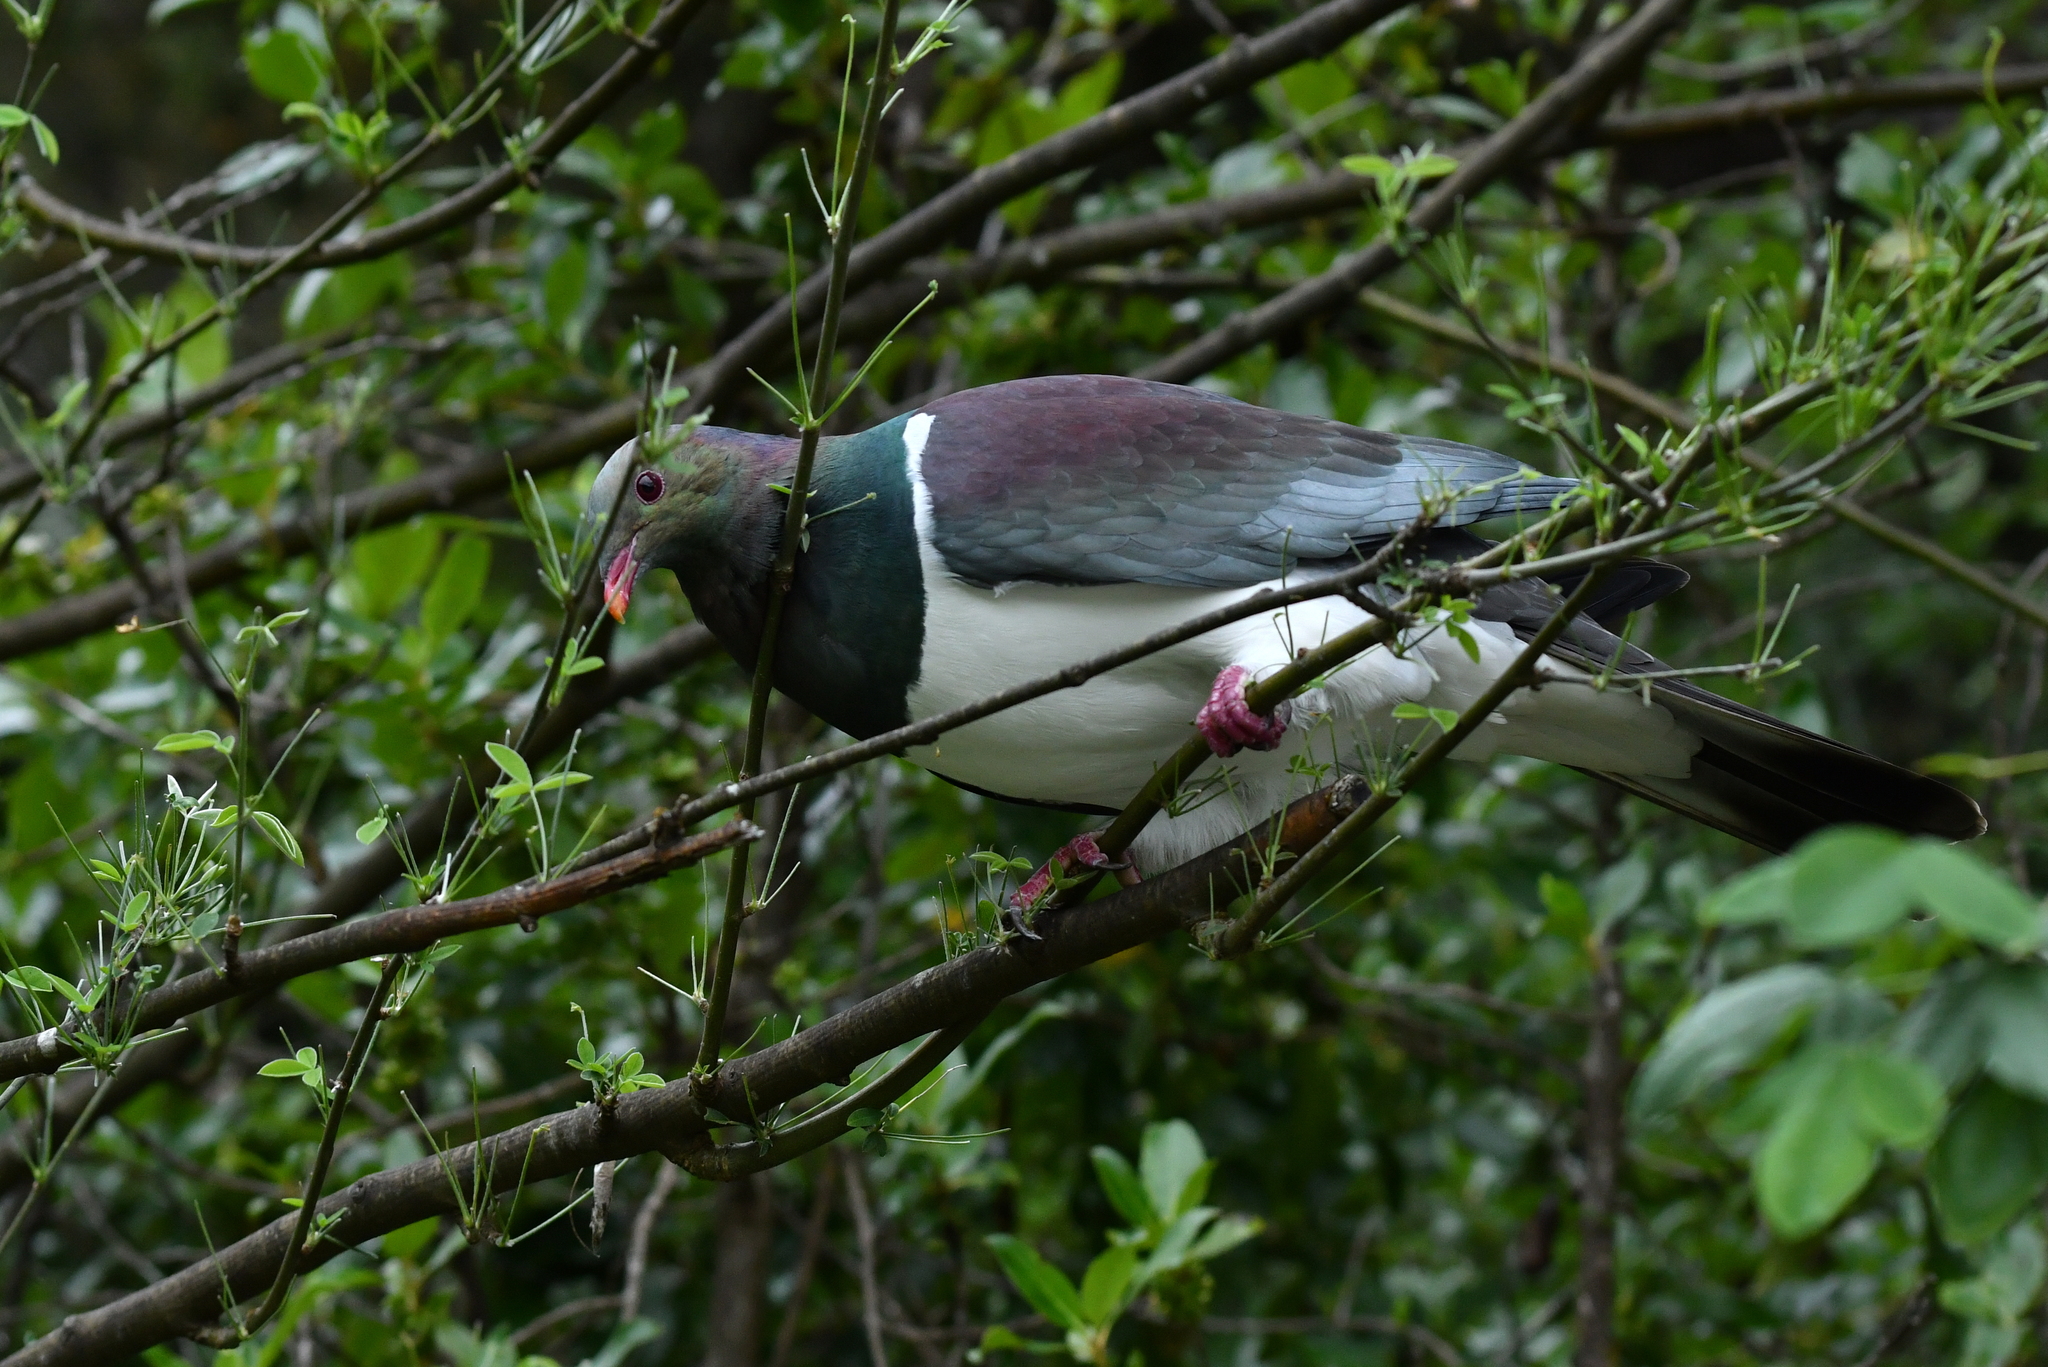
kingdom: Animalia
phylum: Chordata
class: Aves
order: Columbiformes
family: Columbidae
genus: Hemiphaga
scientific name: Hemiphaga novaeseelandiae
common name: New zealand pigeon
